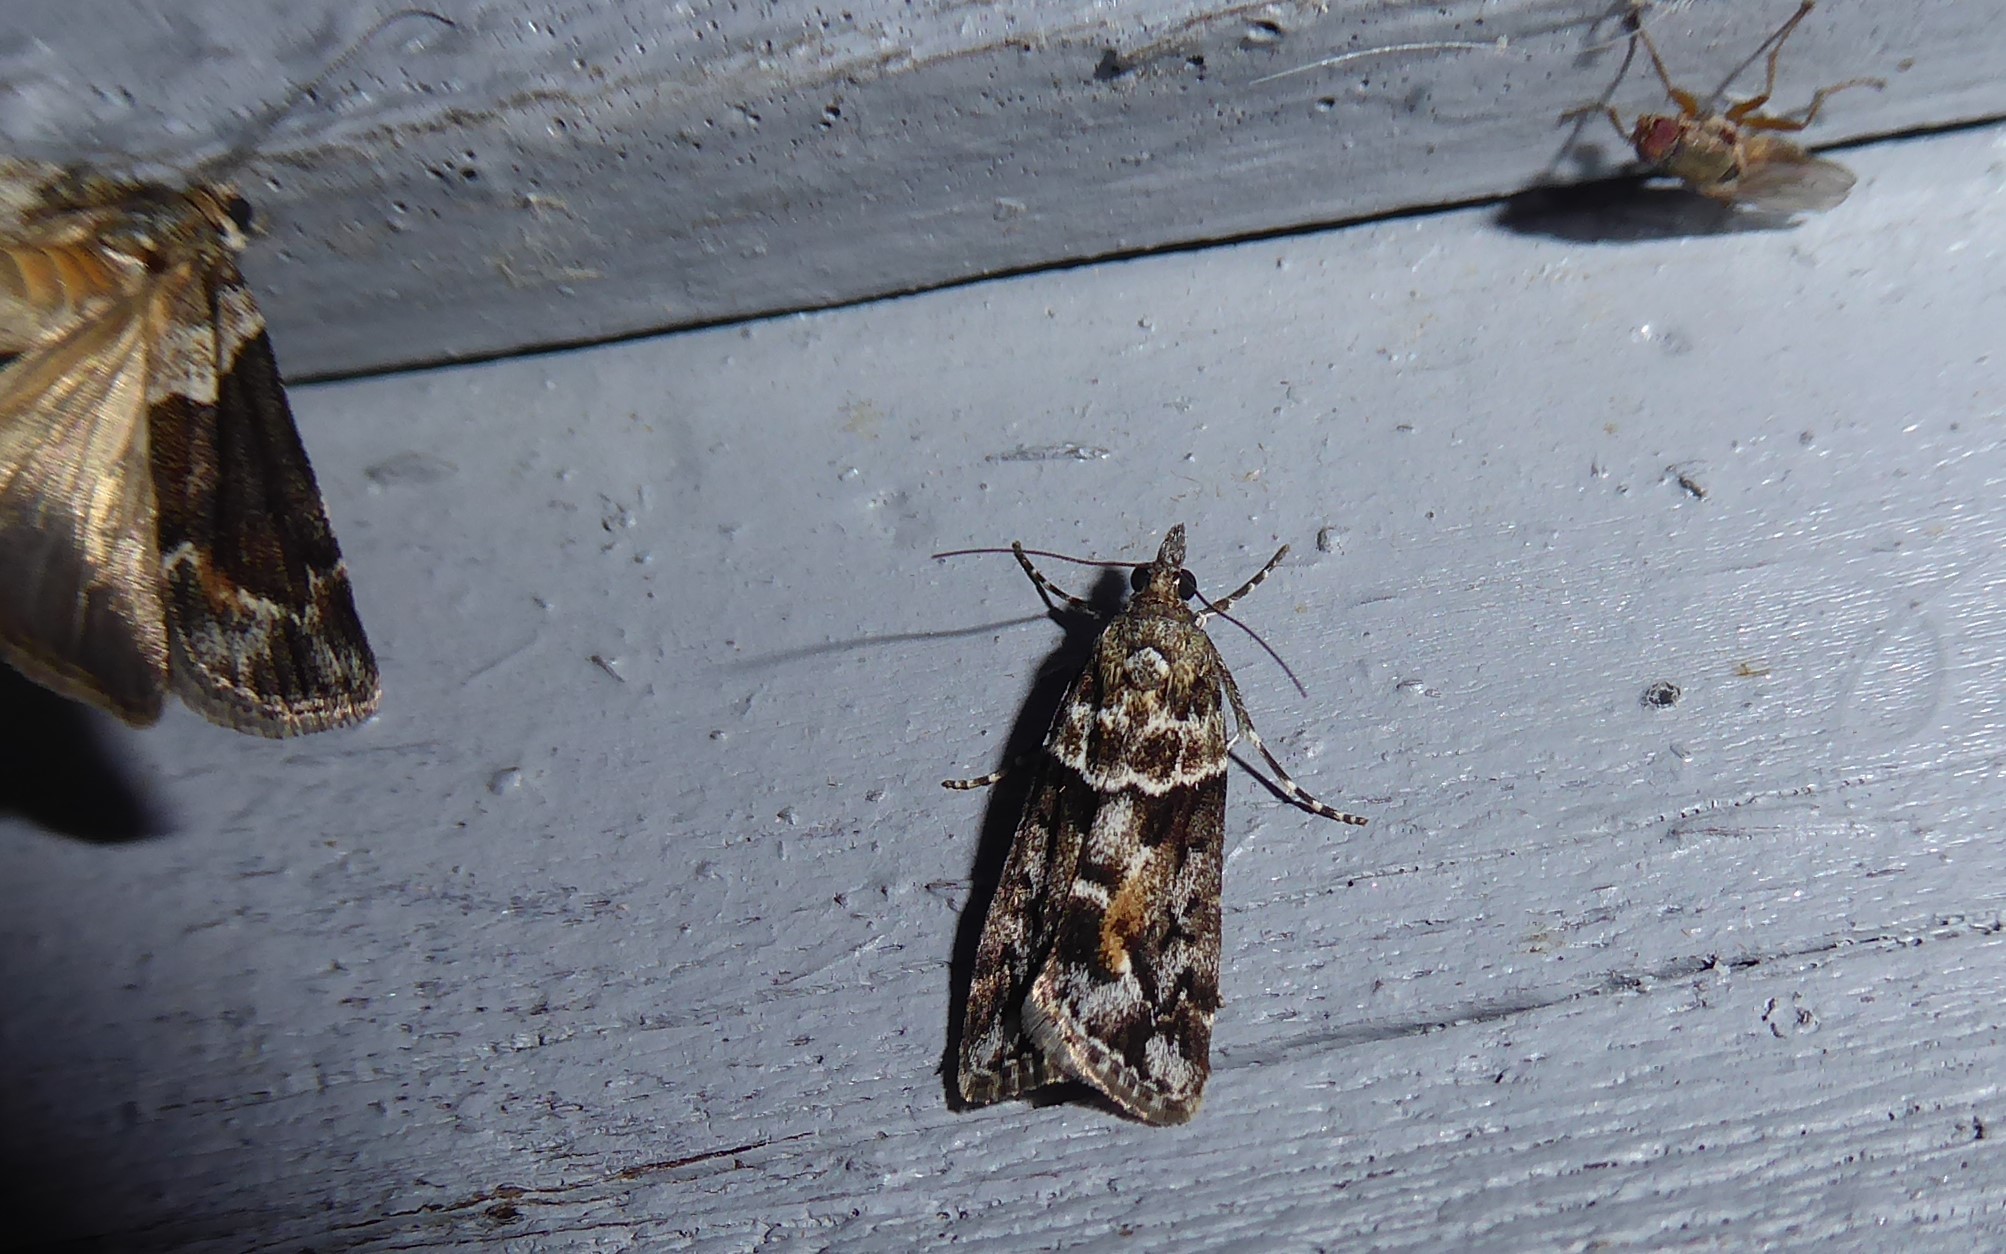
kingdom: Animalia
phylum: Arthropoda
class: Insecta
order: Lepidoptera
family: Crambidae
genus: Eudonia
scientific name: Eudonia submarginalis
